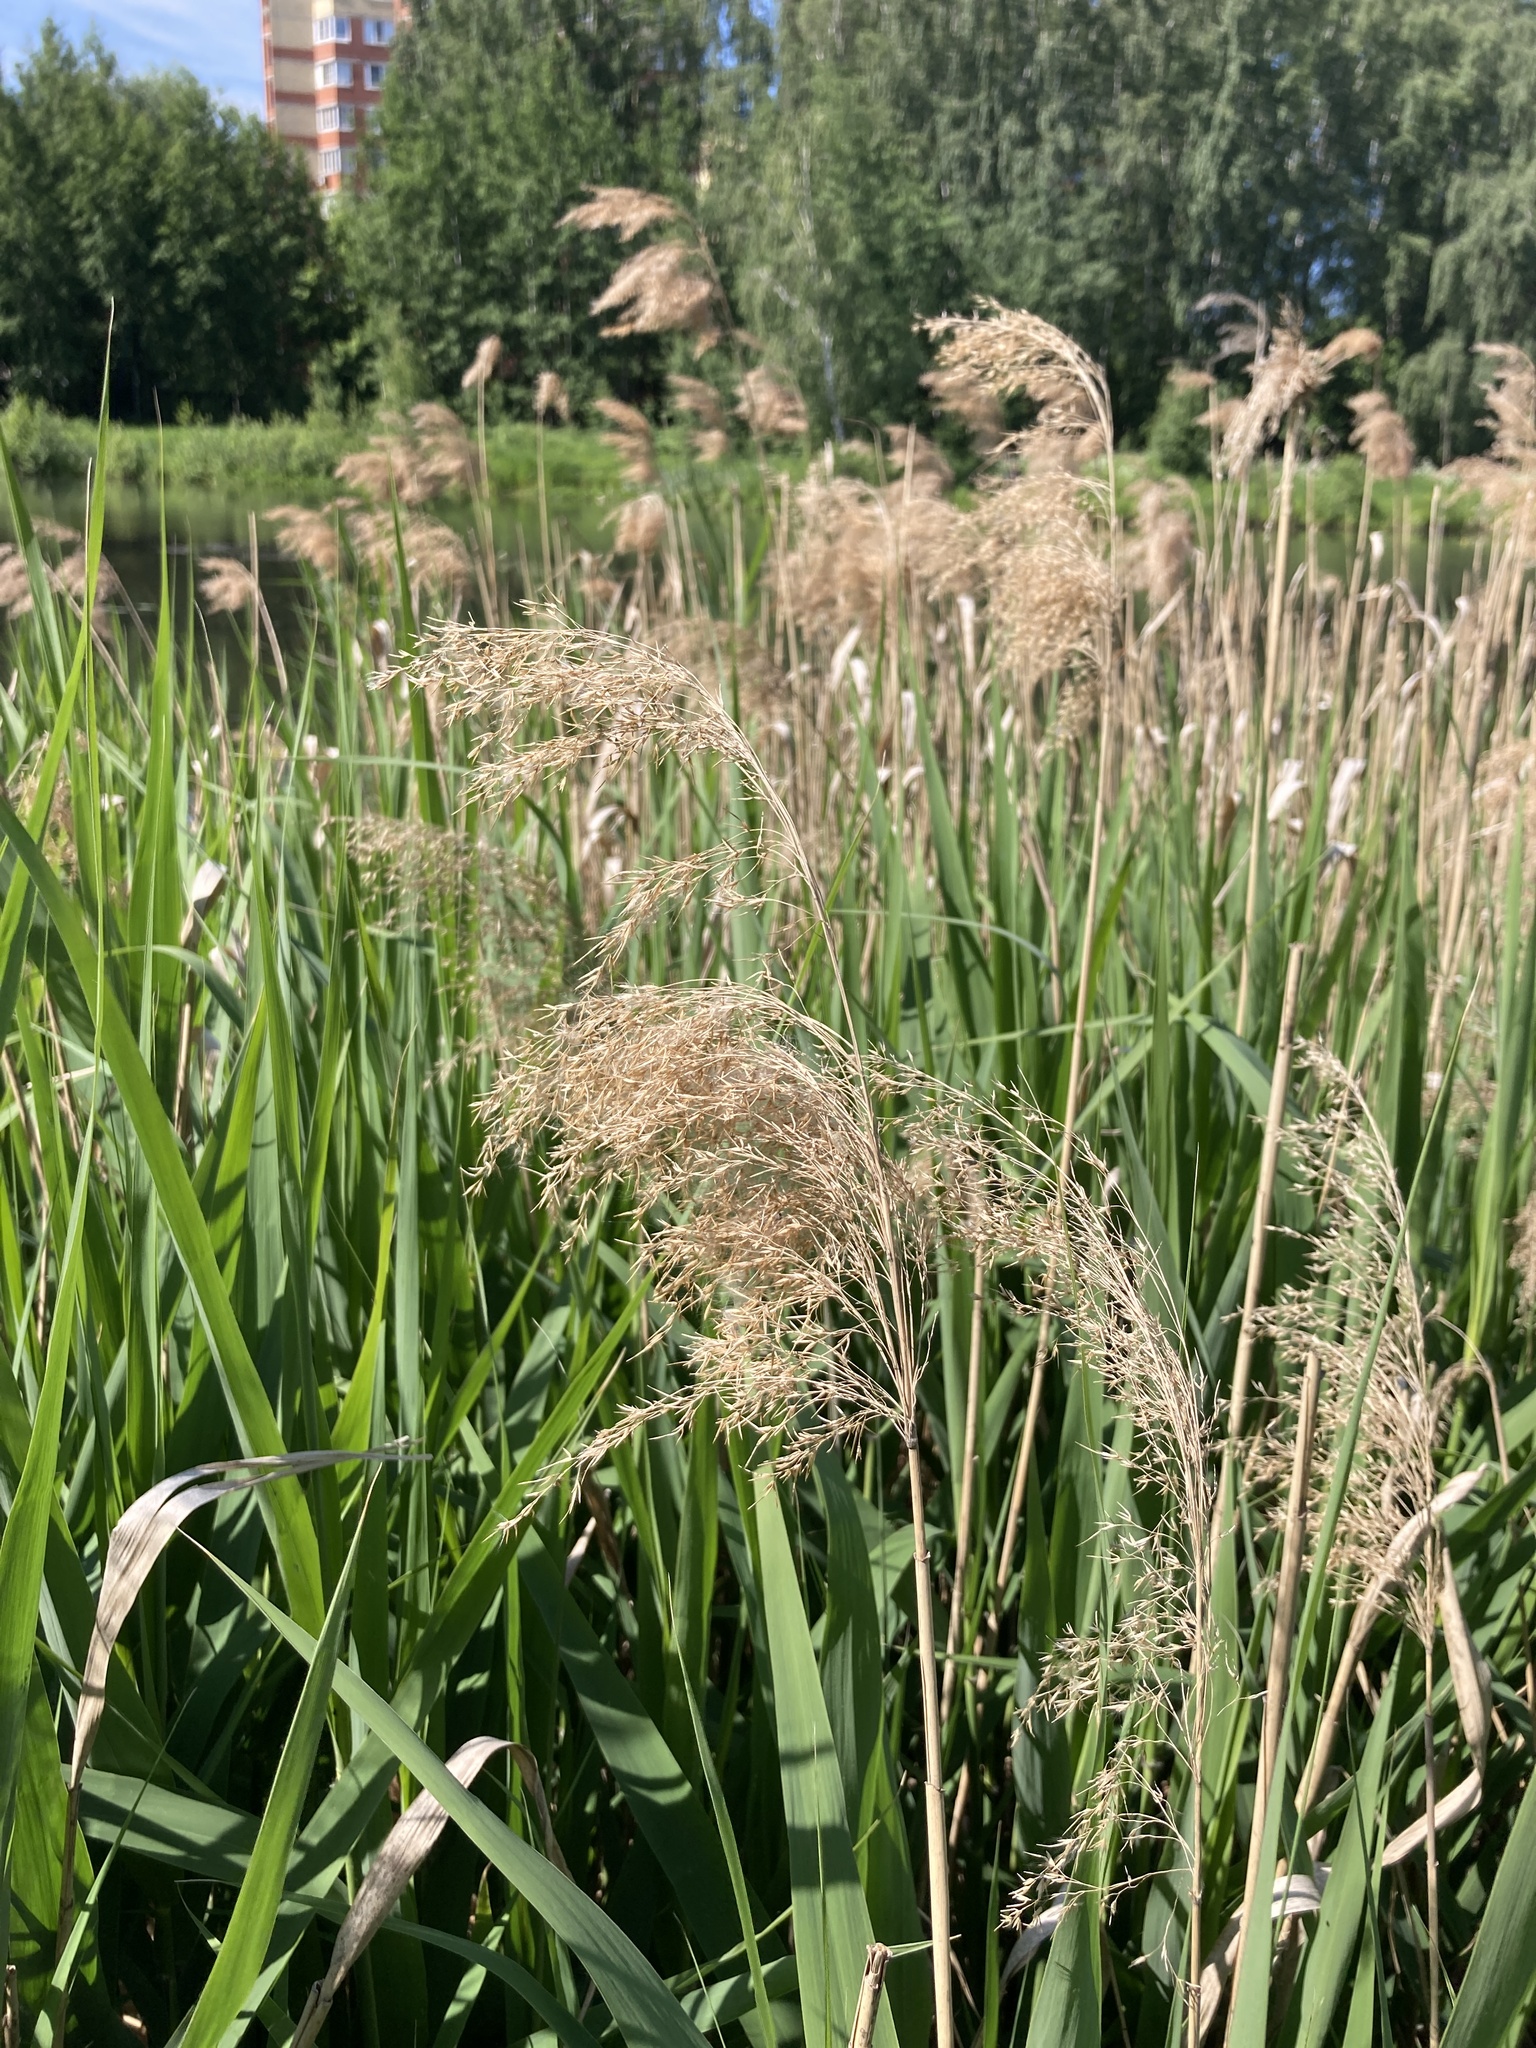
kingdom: Plantae
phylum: Tracheophyta
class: Liliopsida
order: Poales
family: Poaceae
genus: Phragmites
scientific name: Phragmites australis
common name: Common reed
